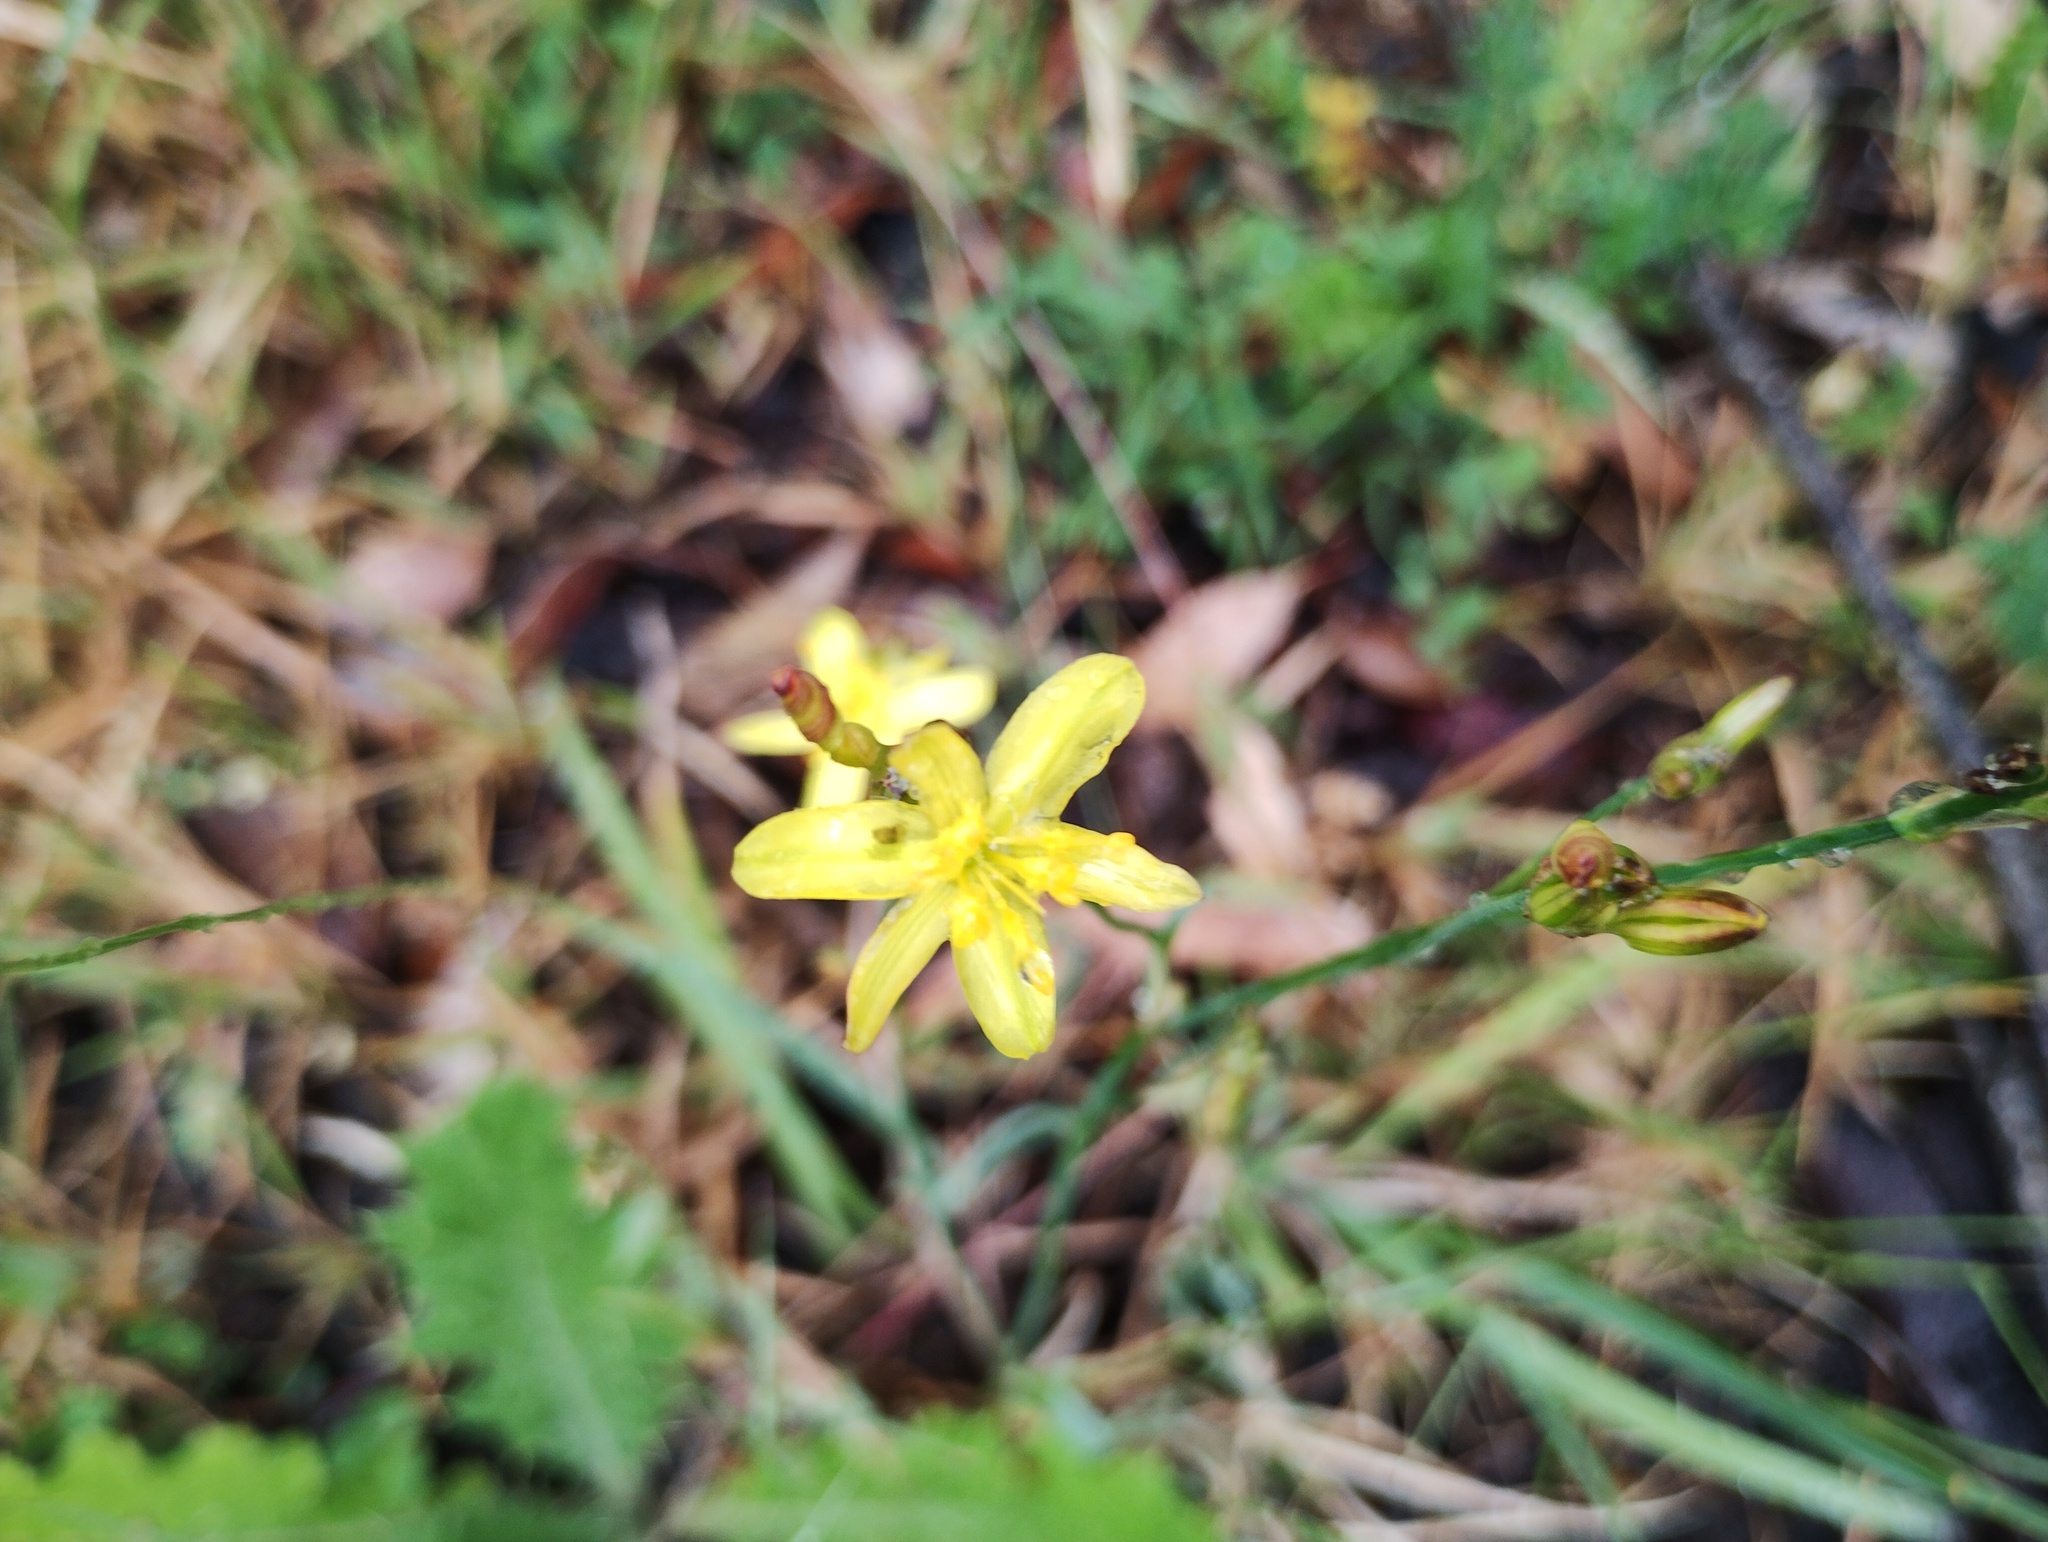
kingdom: Plantae
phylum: Tracheophyta
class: Liliopsida
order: Asparagales
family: Asphodelaceae
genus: Tricoryne
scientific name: Tricoryne elatior
